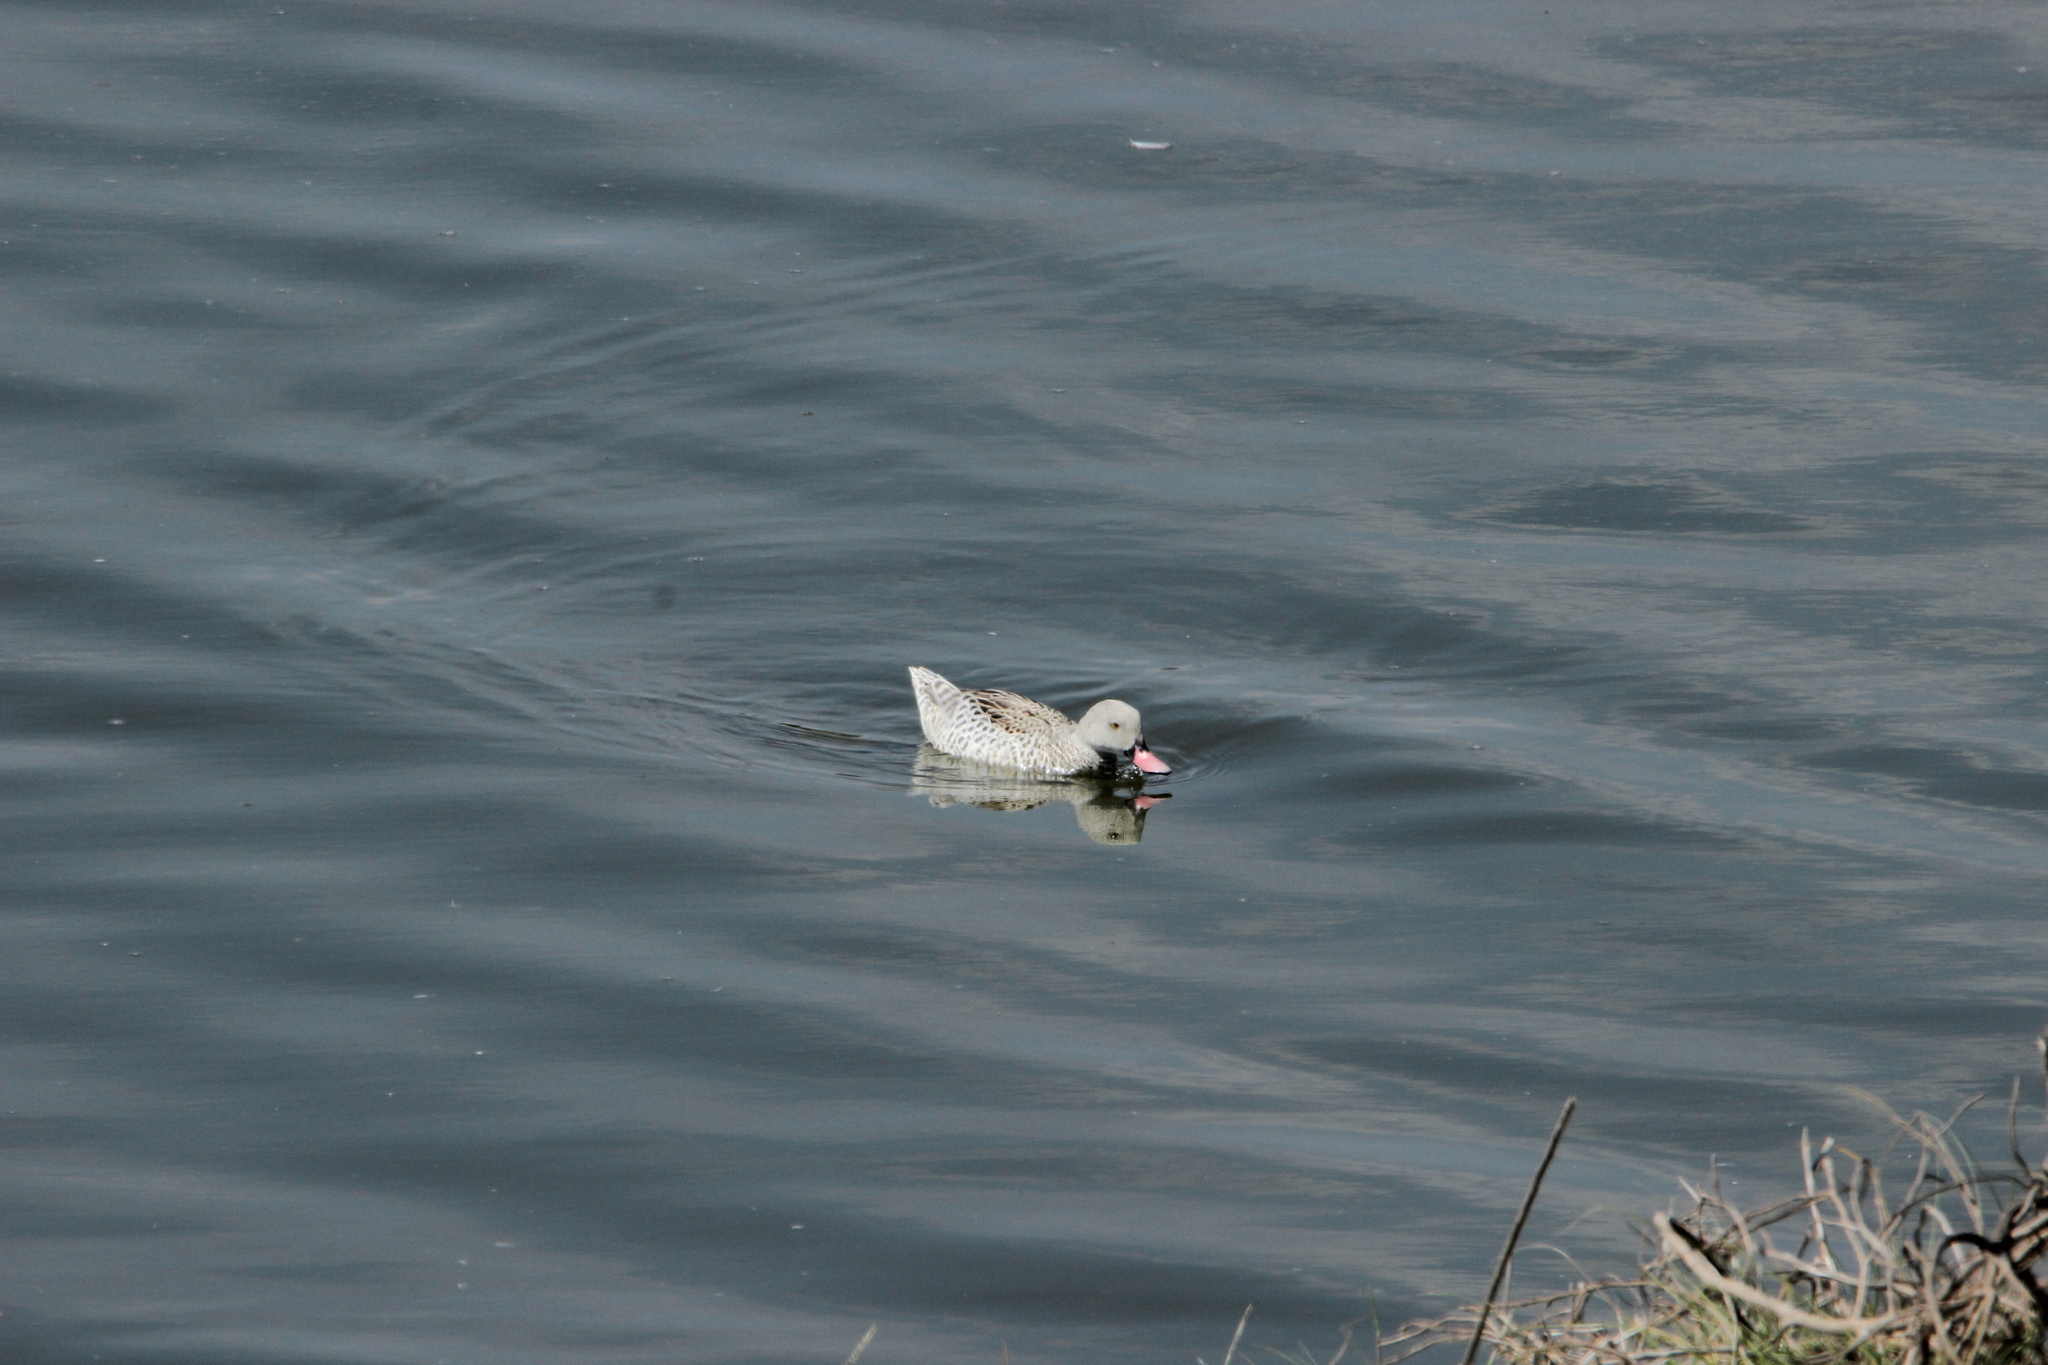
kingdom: Animalia
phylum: Chordata
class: Aves
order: Anseriformes
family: Anatidae
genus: Anas
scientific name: Anas capensis
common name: Cape teal
